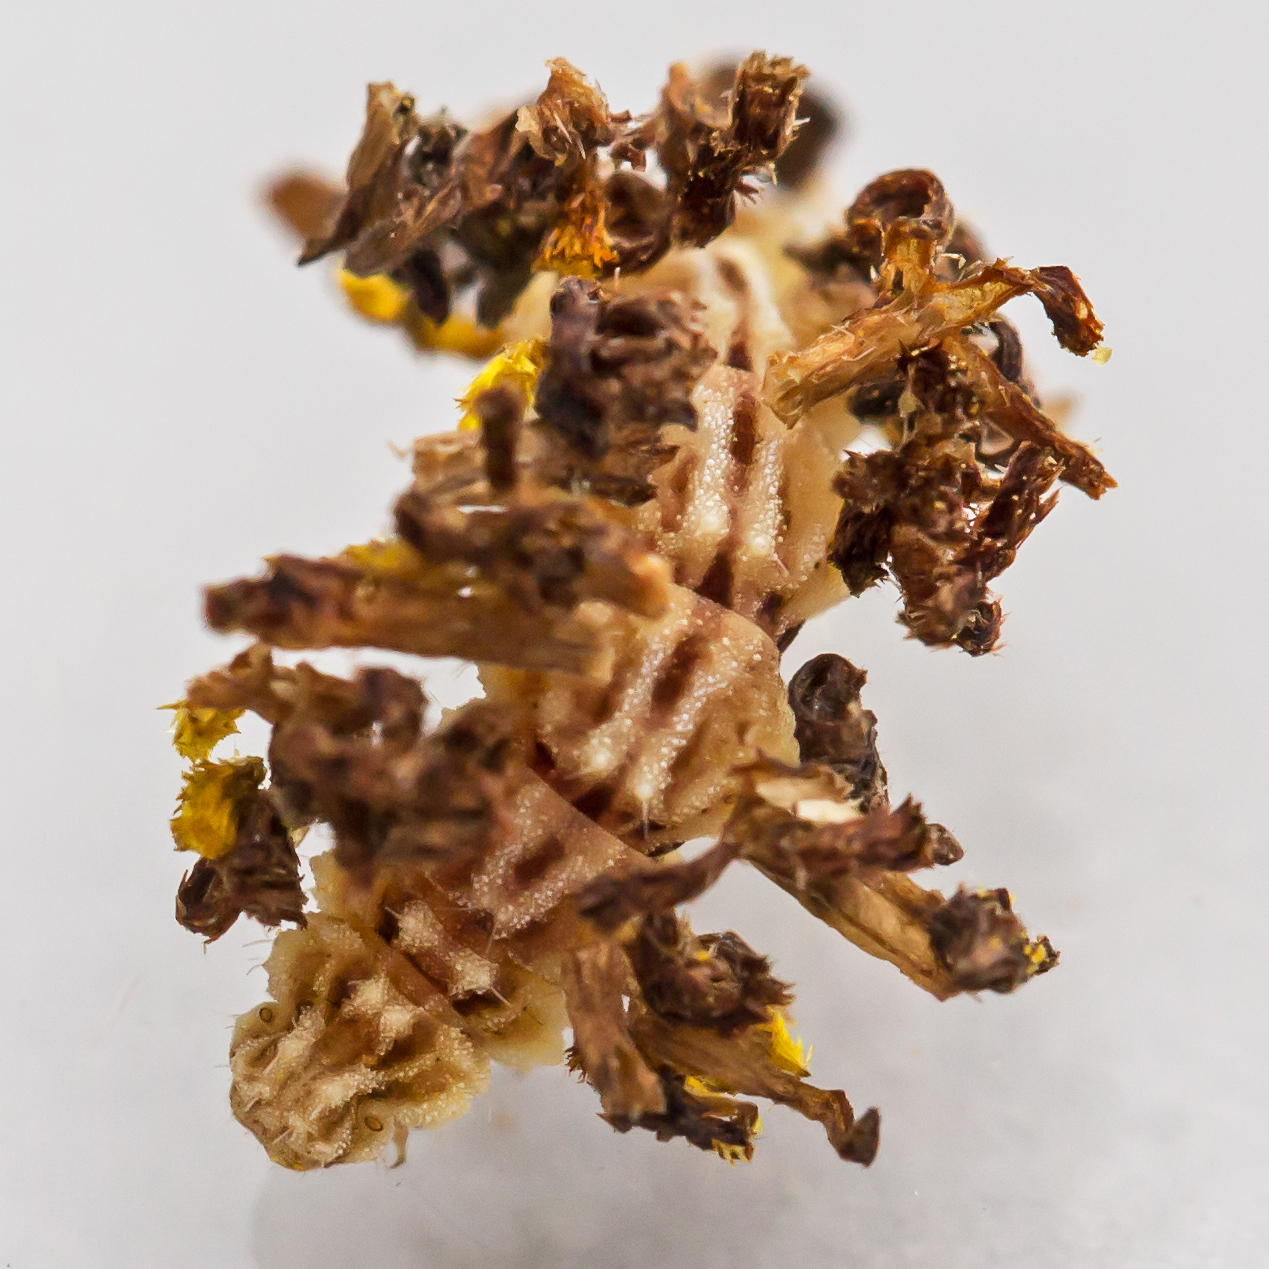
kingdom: Animalia
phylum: Arthropoda
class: Insecta
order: Lepidoptera
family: Geometridae
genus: Synchlora
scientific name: Synchlora aerata
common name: Wavy-lined emerald
